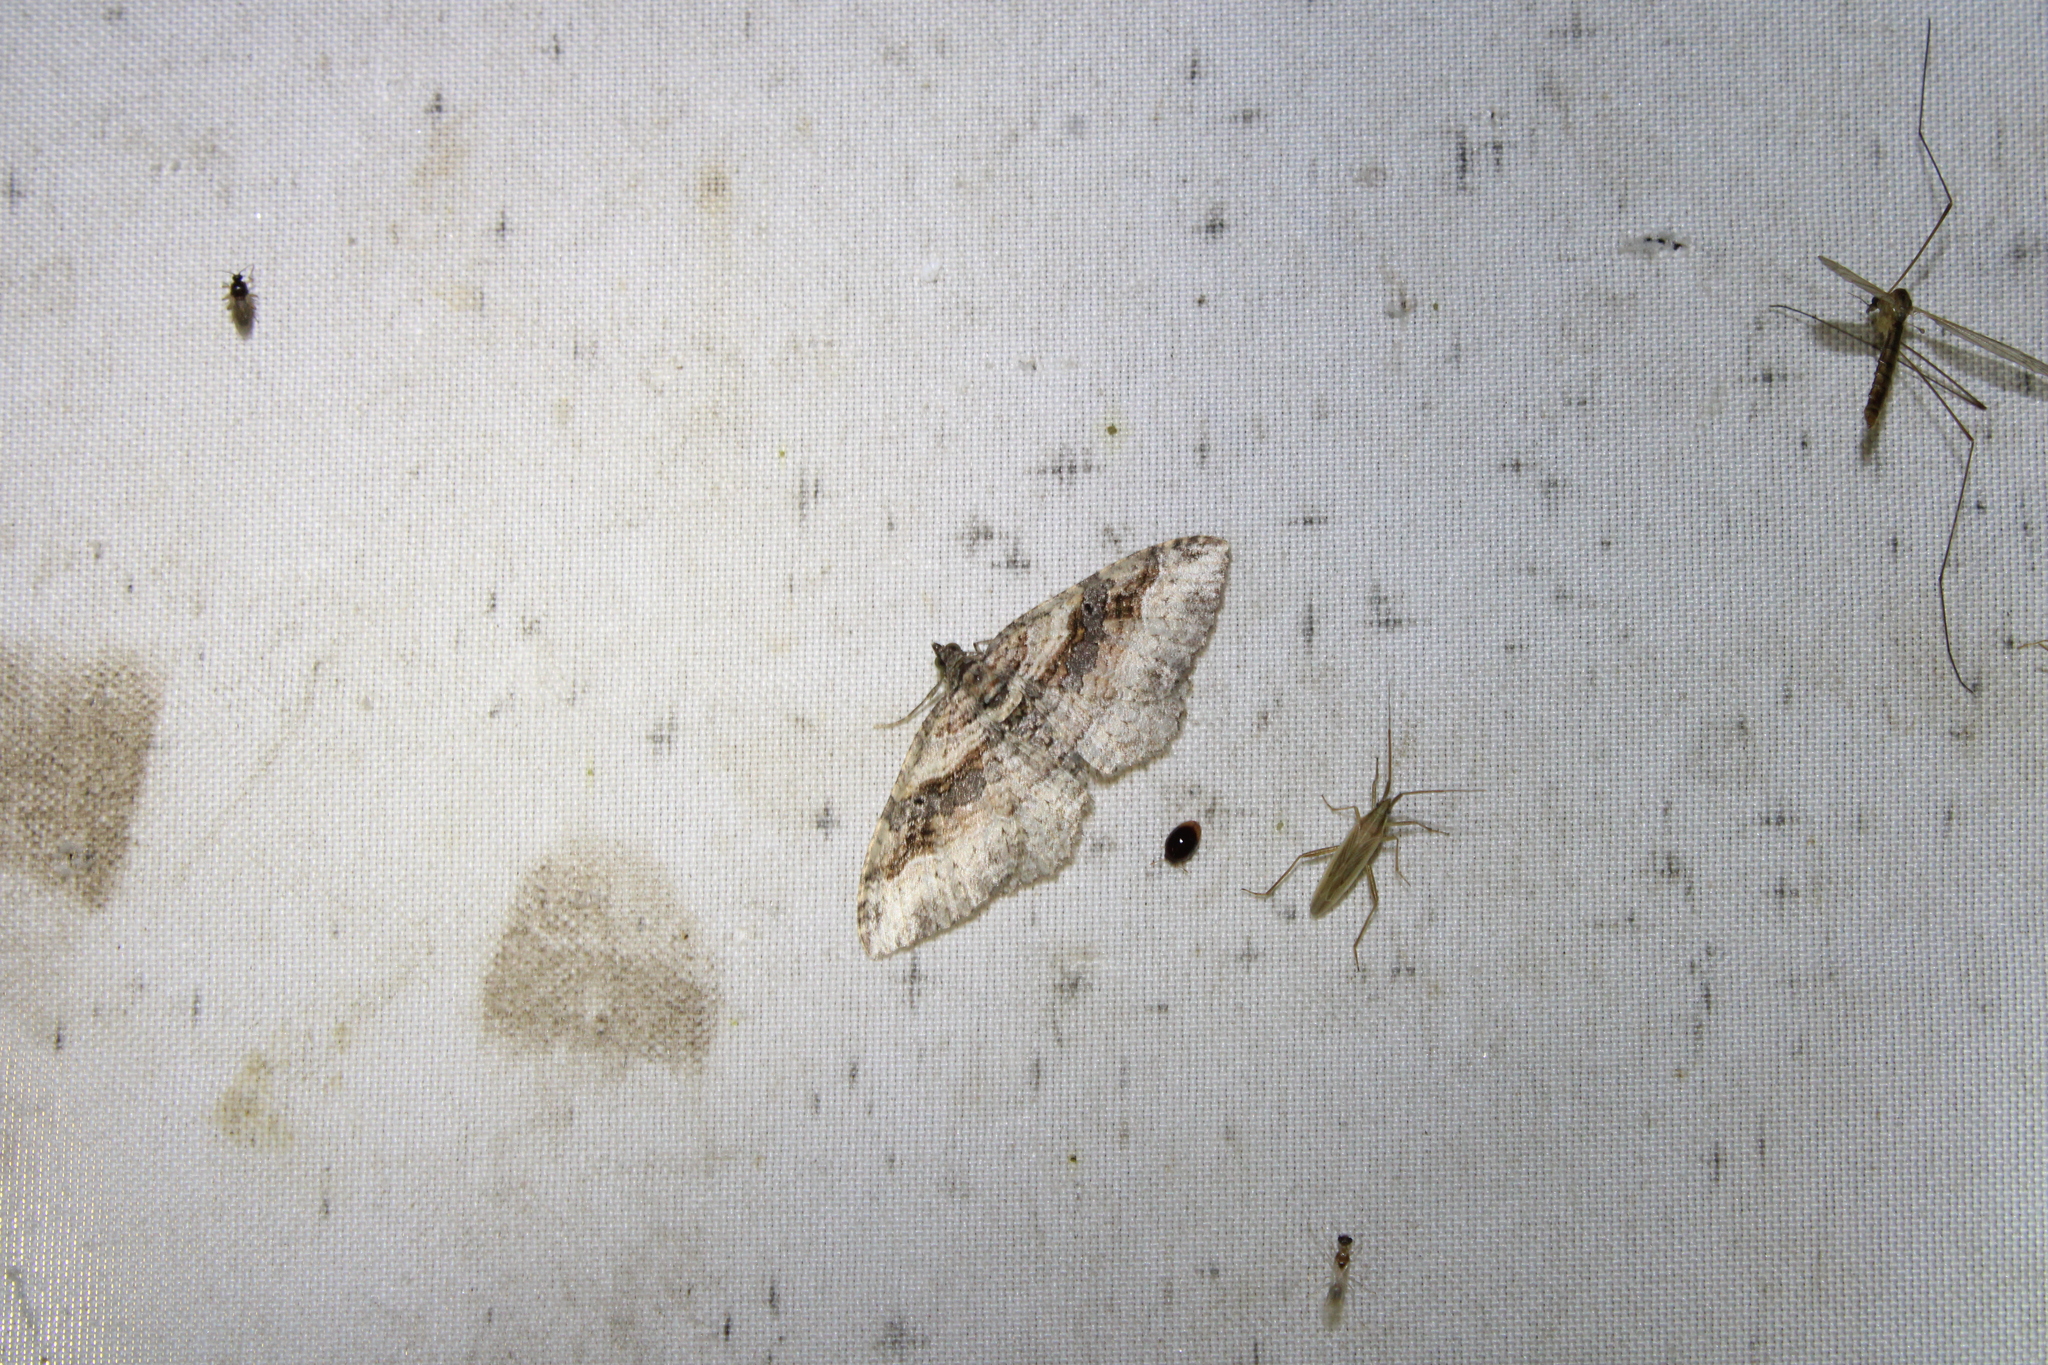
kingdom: Animalia
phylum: Arthropoda
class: Insecta
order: Lepidoptera
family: Geometridae
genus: Costaconvexa
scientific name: Costaconvexa centrostrigaria
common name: Bent-line carpet
